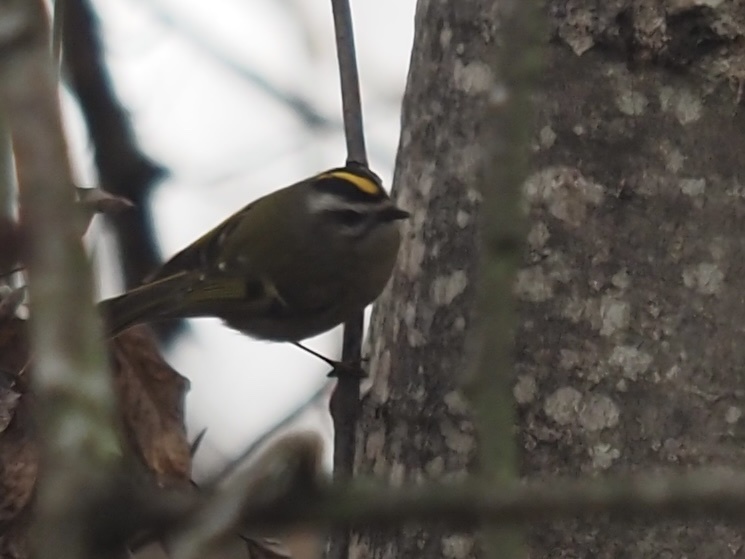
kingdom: Animalia
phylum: Chordata
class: Aves
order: Passeriformes
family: Regulidae
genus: Regulus
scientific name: Regulus satrapa
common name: Golden-crowned kinglet
